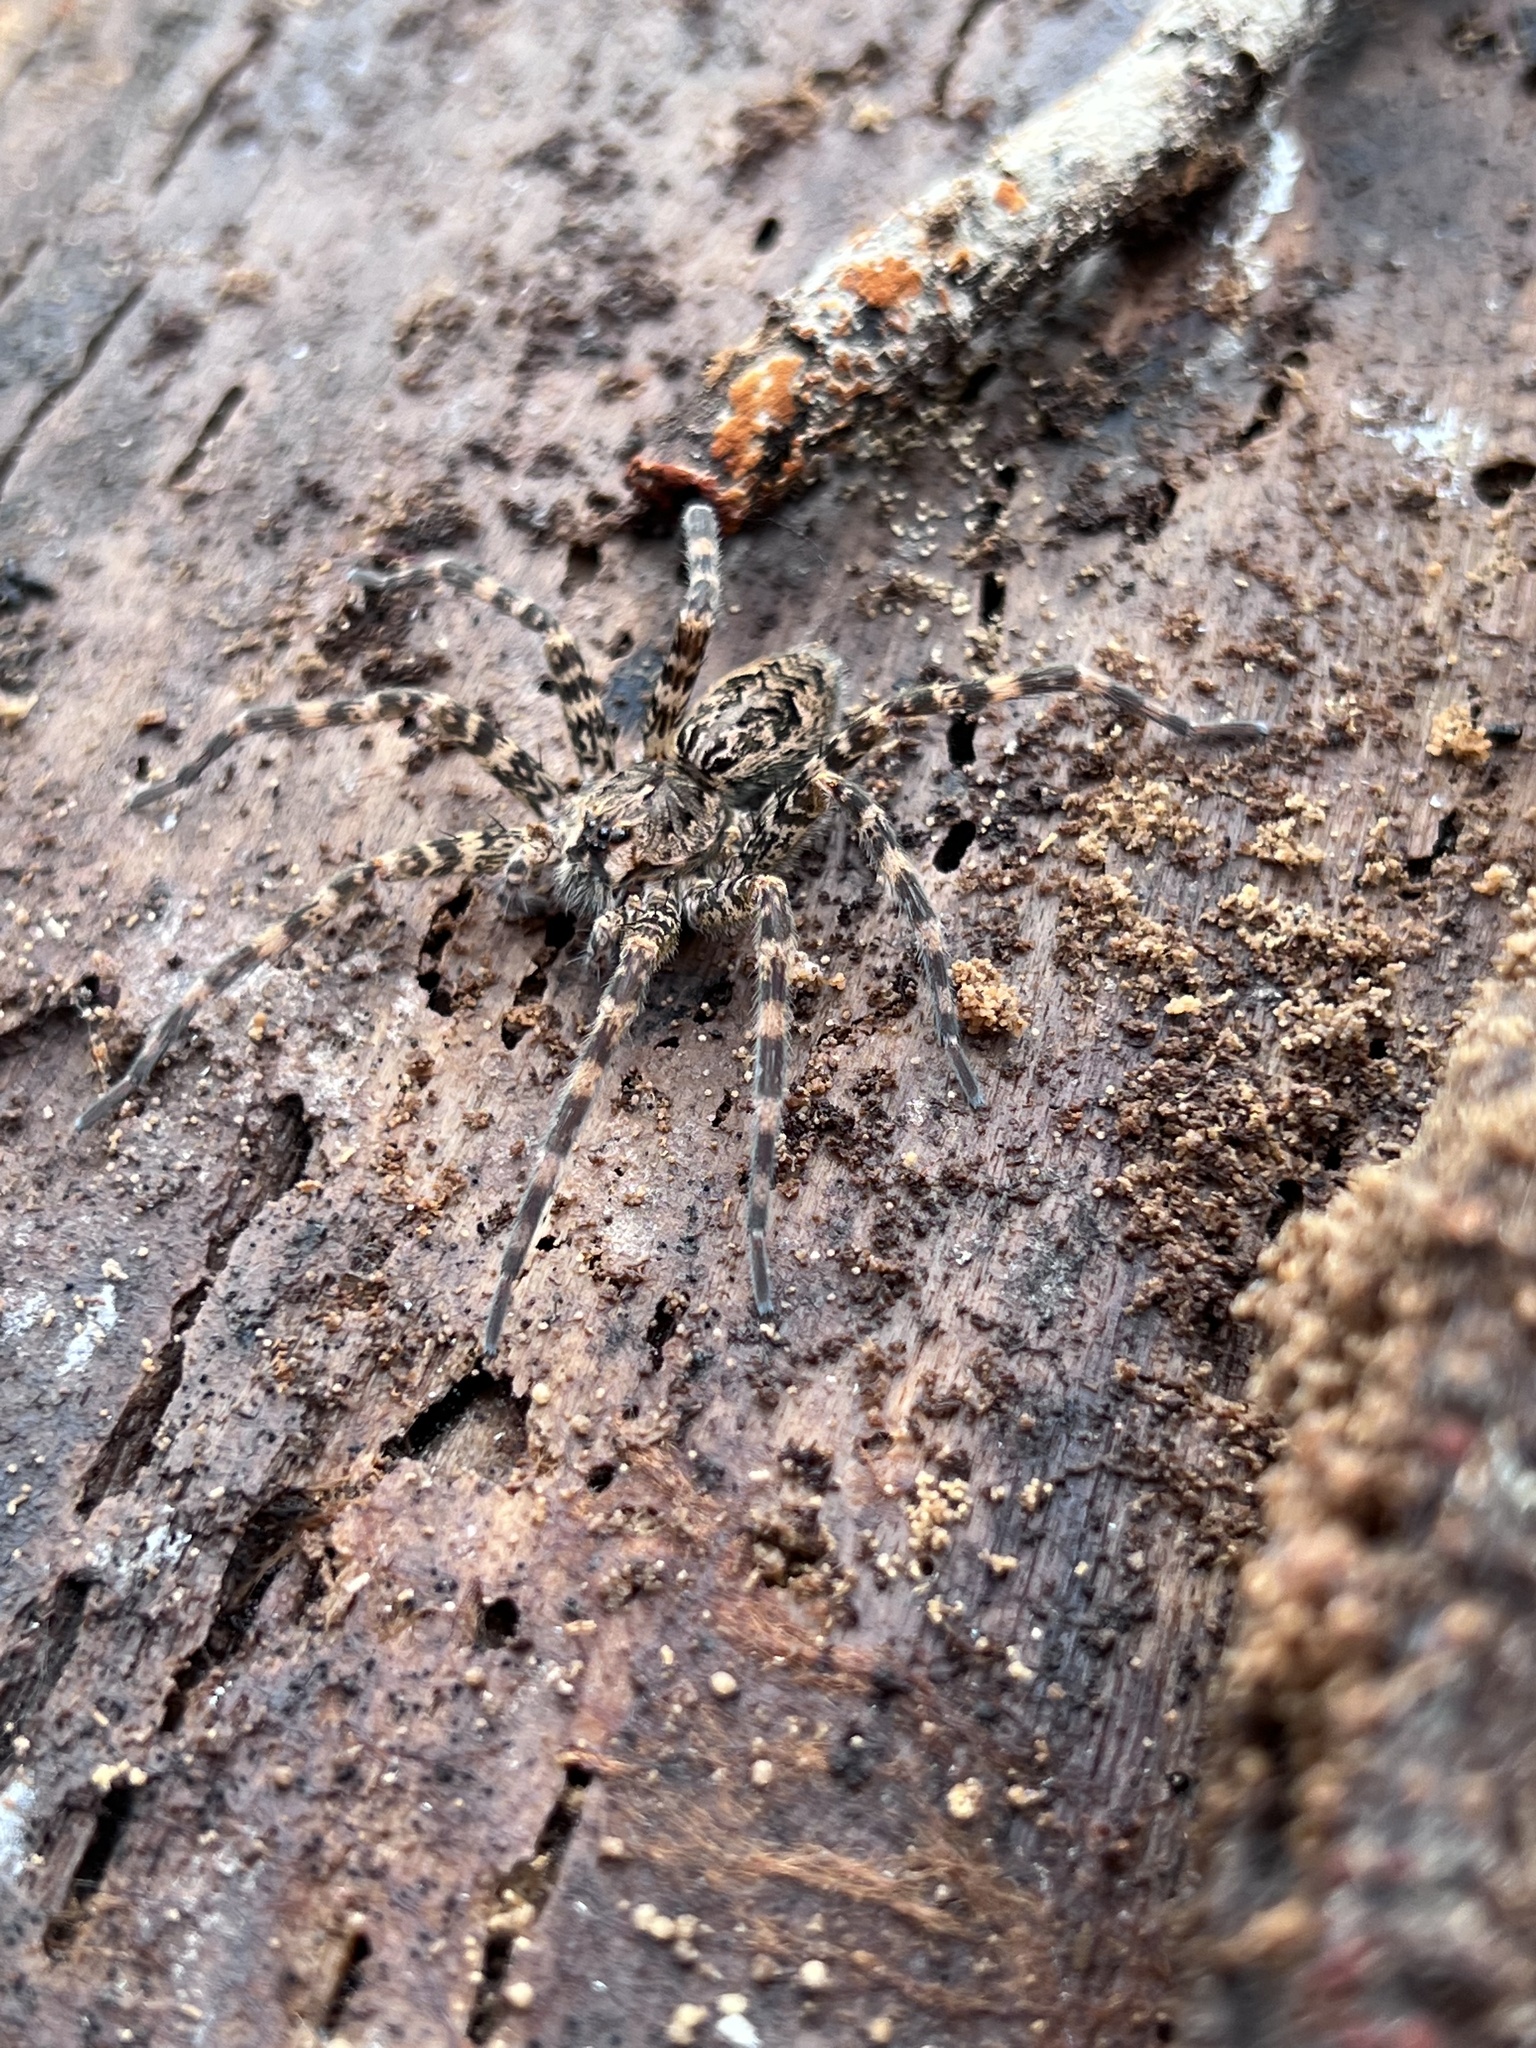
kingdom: Animalia
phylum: Arthropoda
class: Arachnida
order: Araneae
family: Pisauridae
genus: Dolomedes
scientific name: Dolomedes tenebrosus
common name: Dark fishing spider
